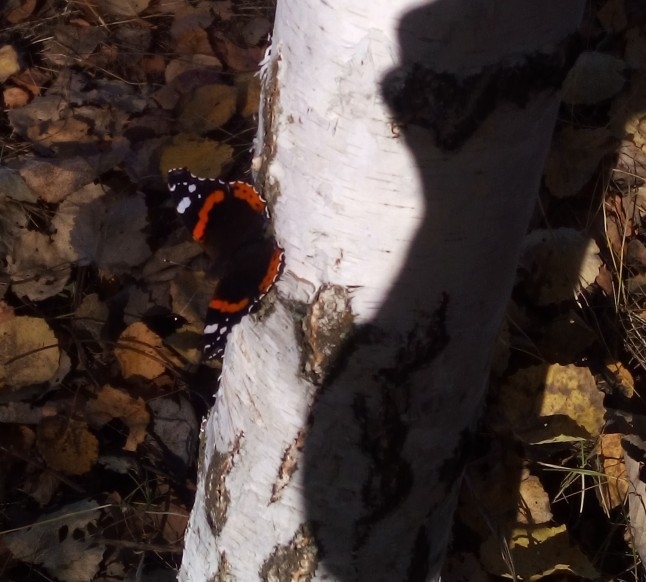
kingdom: Animalia
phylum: Arthropoda
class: Insecta
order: Lepidoptera
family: Nymphalidae
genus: Vanessa
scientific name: Vanessa atalanta
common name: Red admiral
